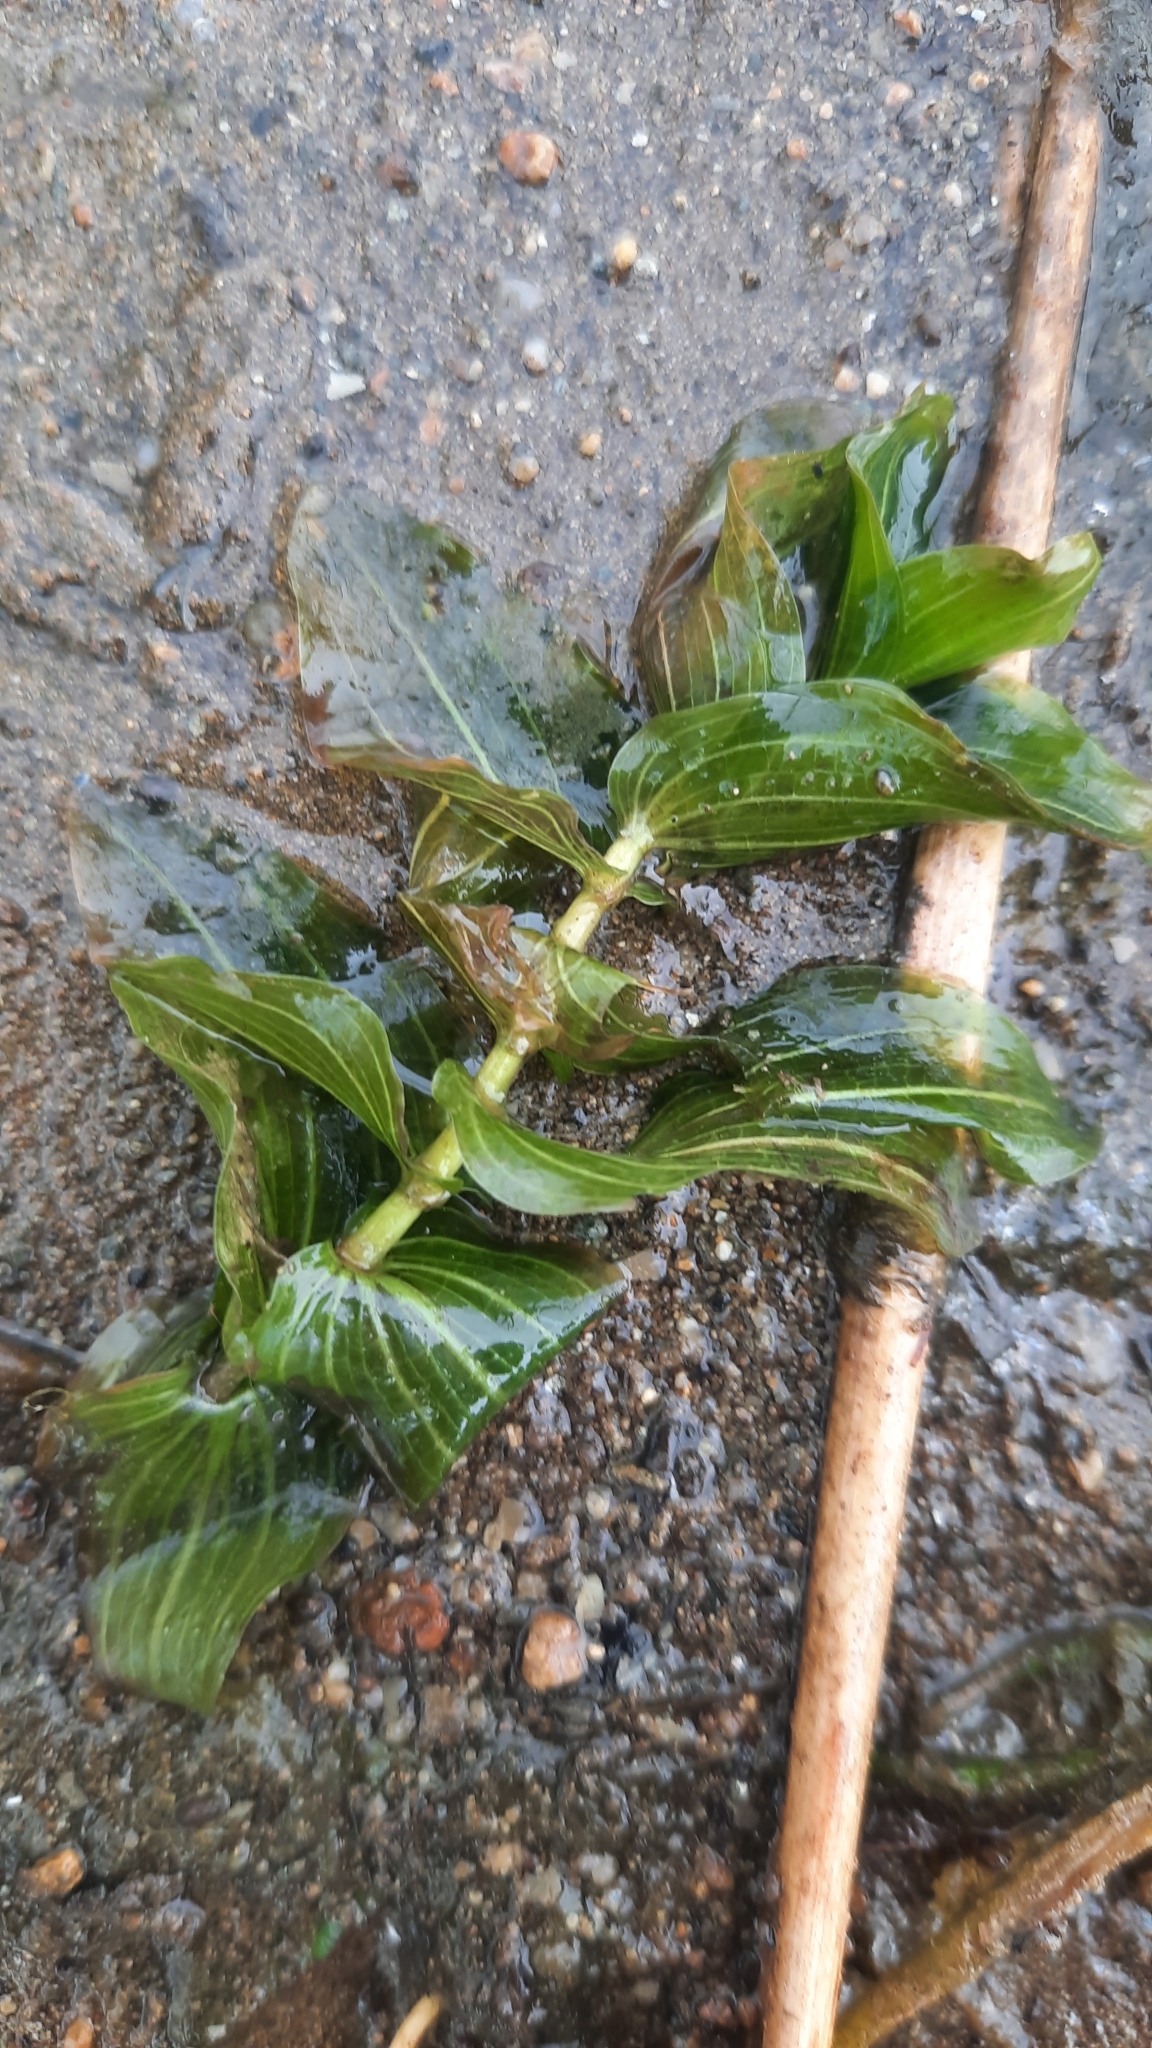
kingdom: Plantae
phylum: Tracheophyta
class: Liliopsida
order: Alismatales
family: Potamogetonaceae
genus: Potamogeton
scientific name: Potamogeton perfoliatus
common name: Perfoliate pondweed
